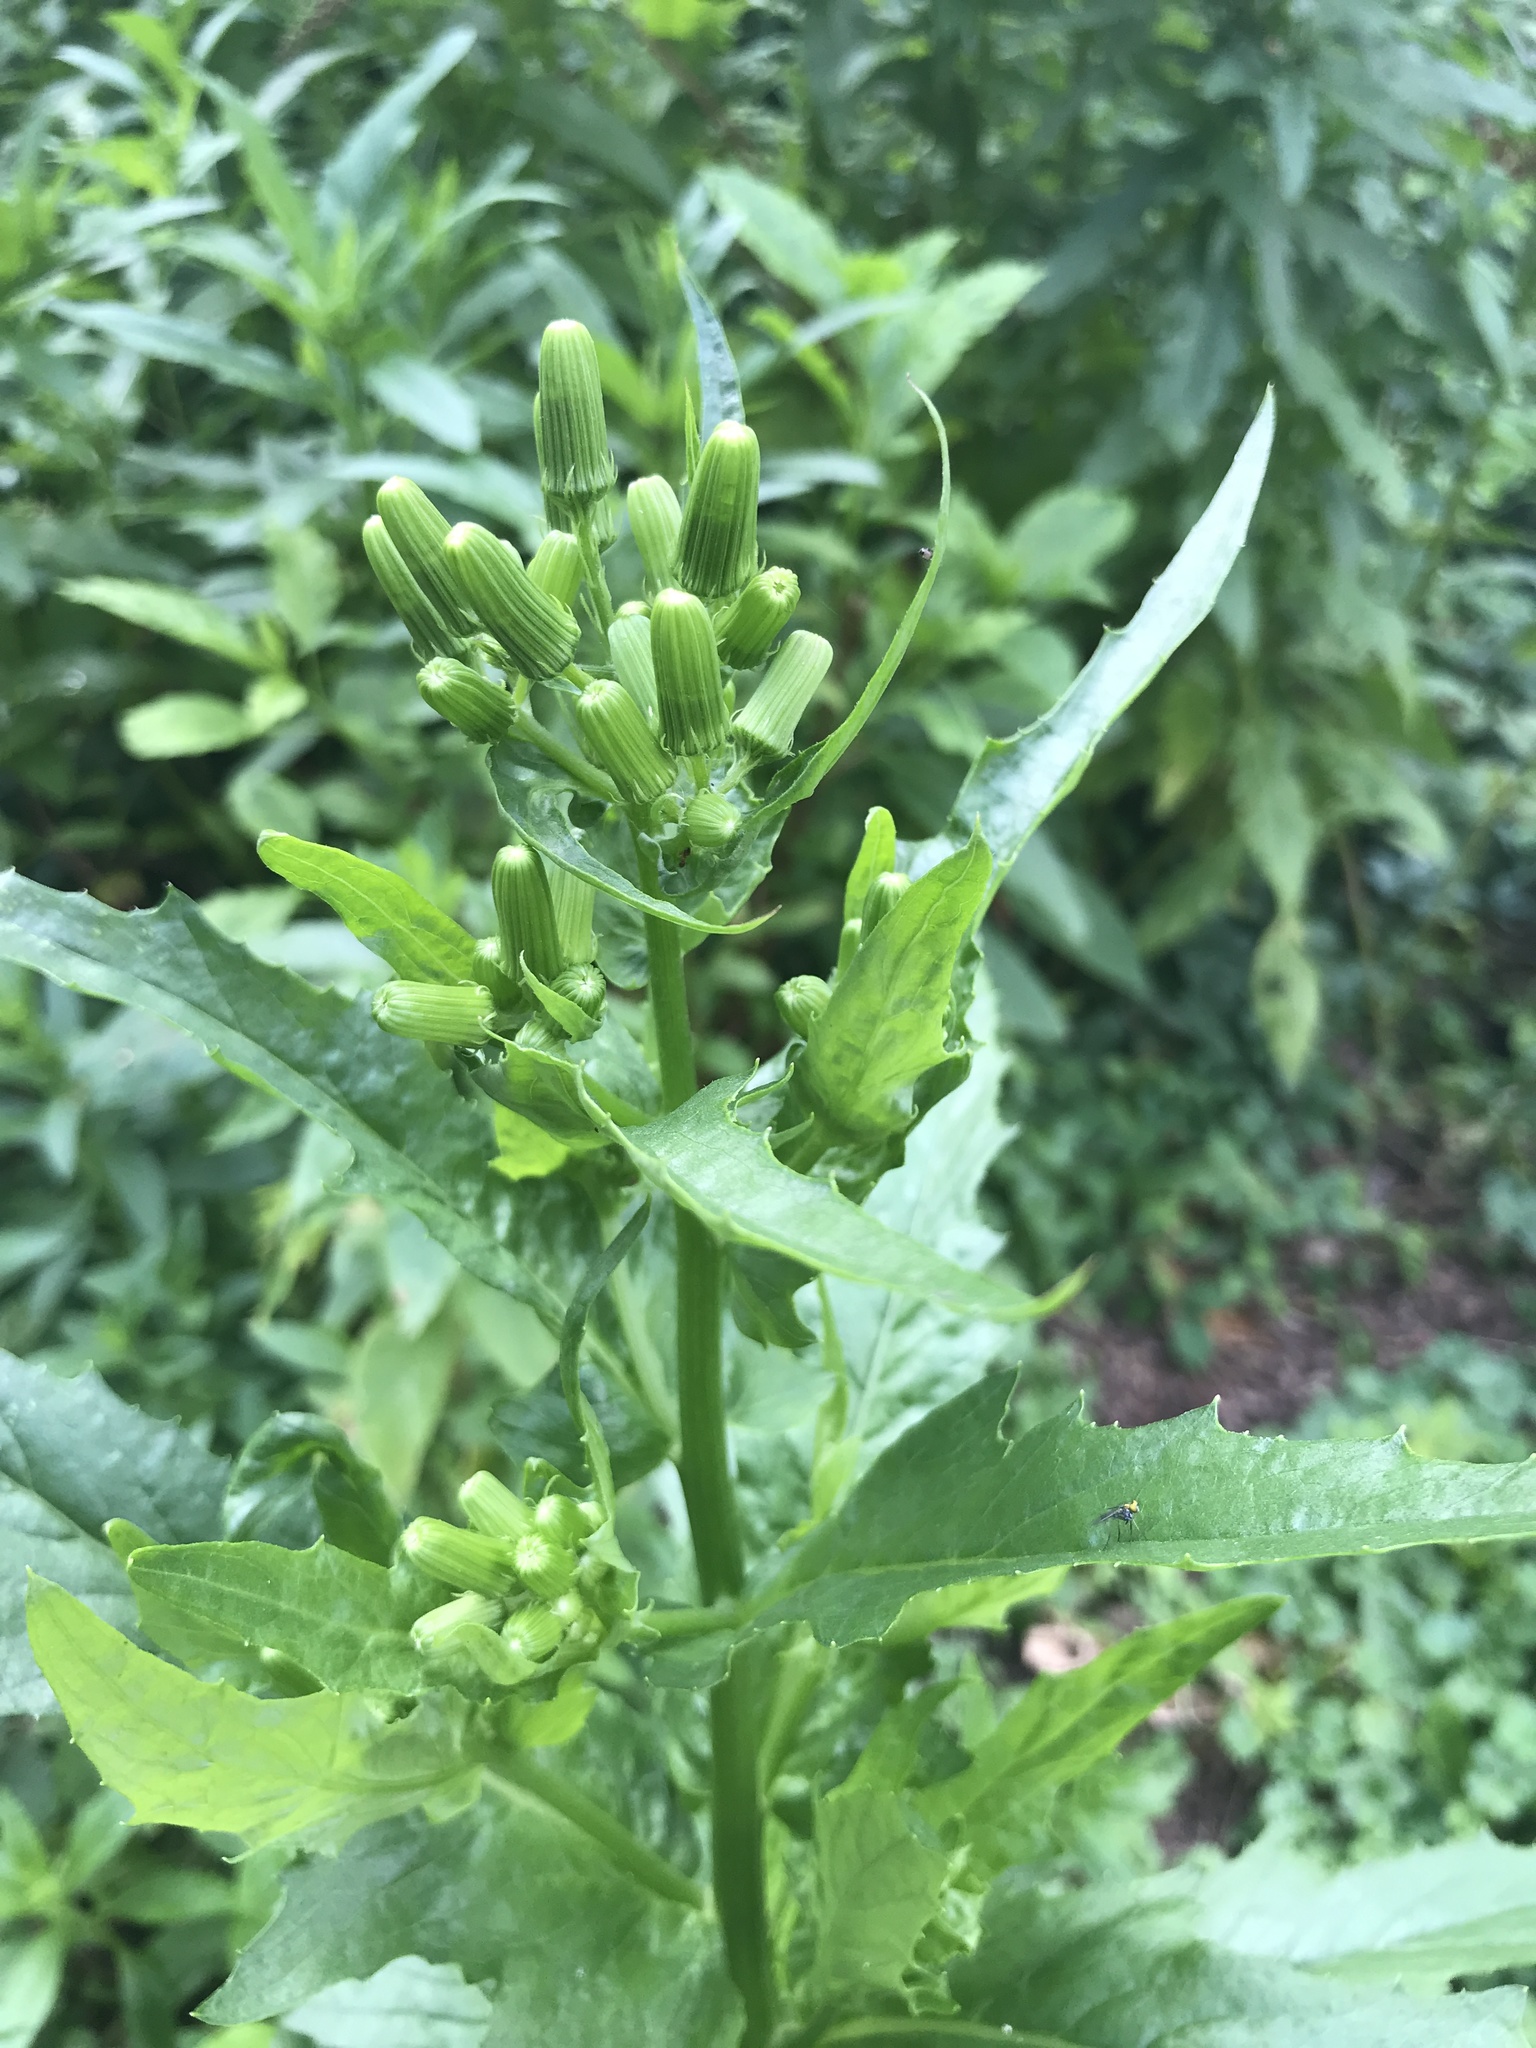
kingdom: Plantae
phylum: Tracheophyta
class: Magnoliopsida
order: Asterales
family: Asteraceae
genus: Erechtites
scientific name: Erechtites hieraciifolius
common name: American burnweed
